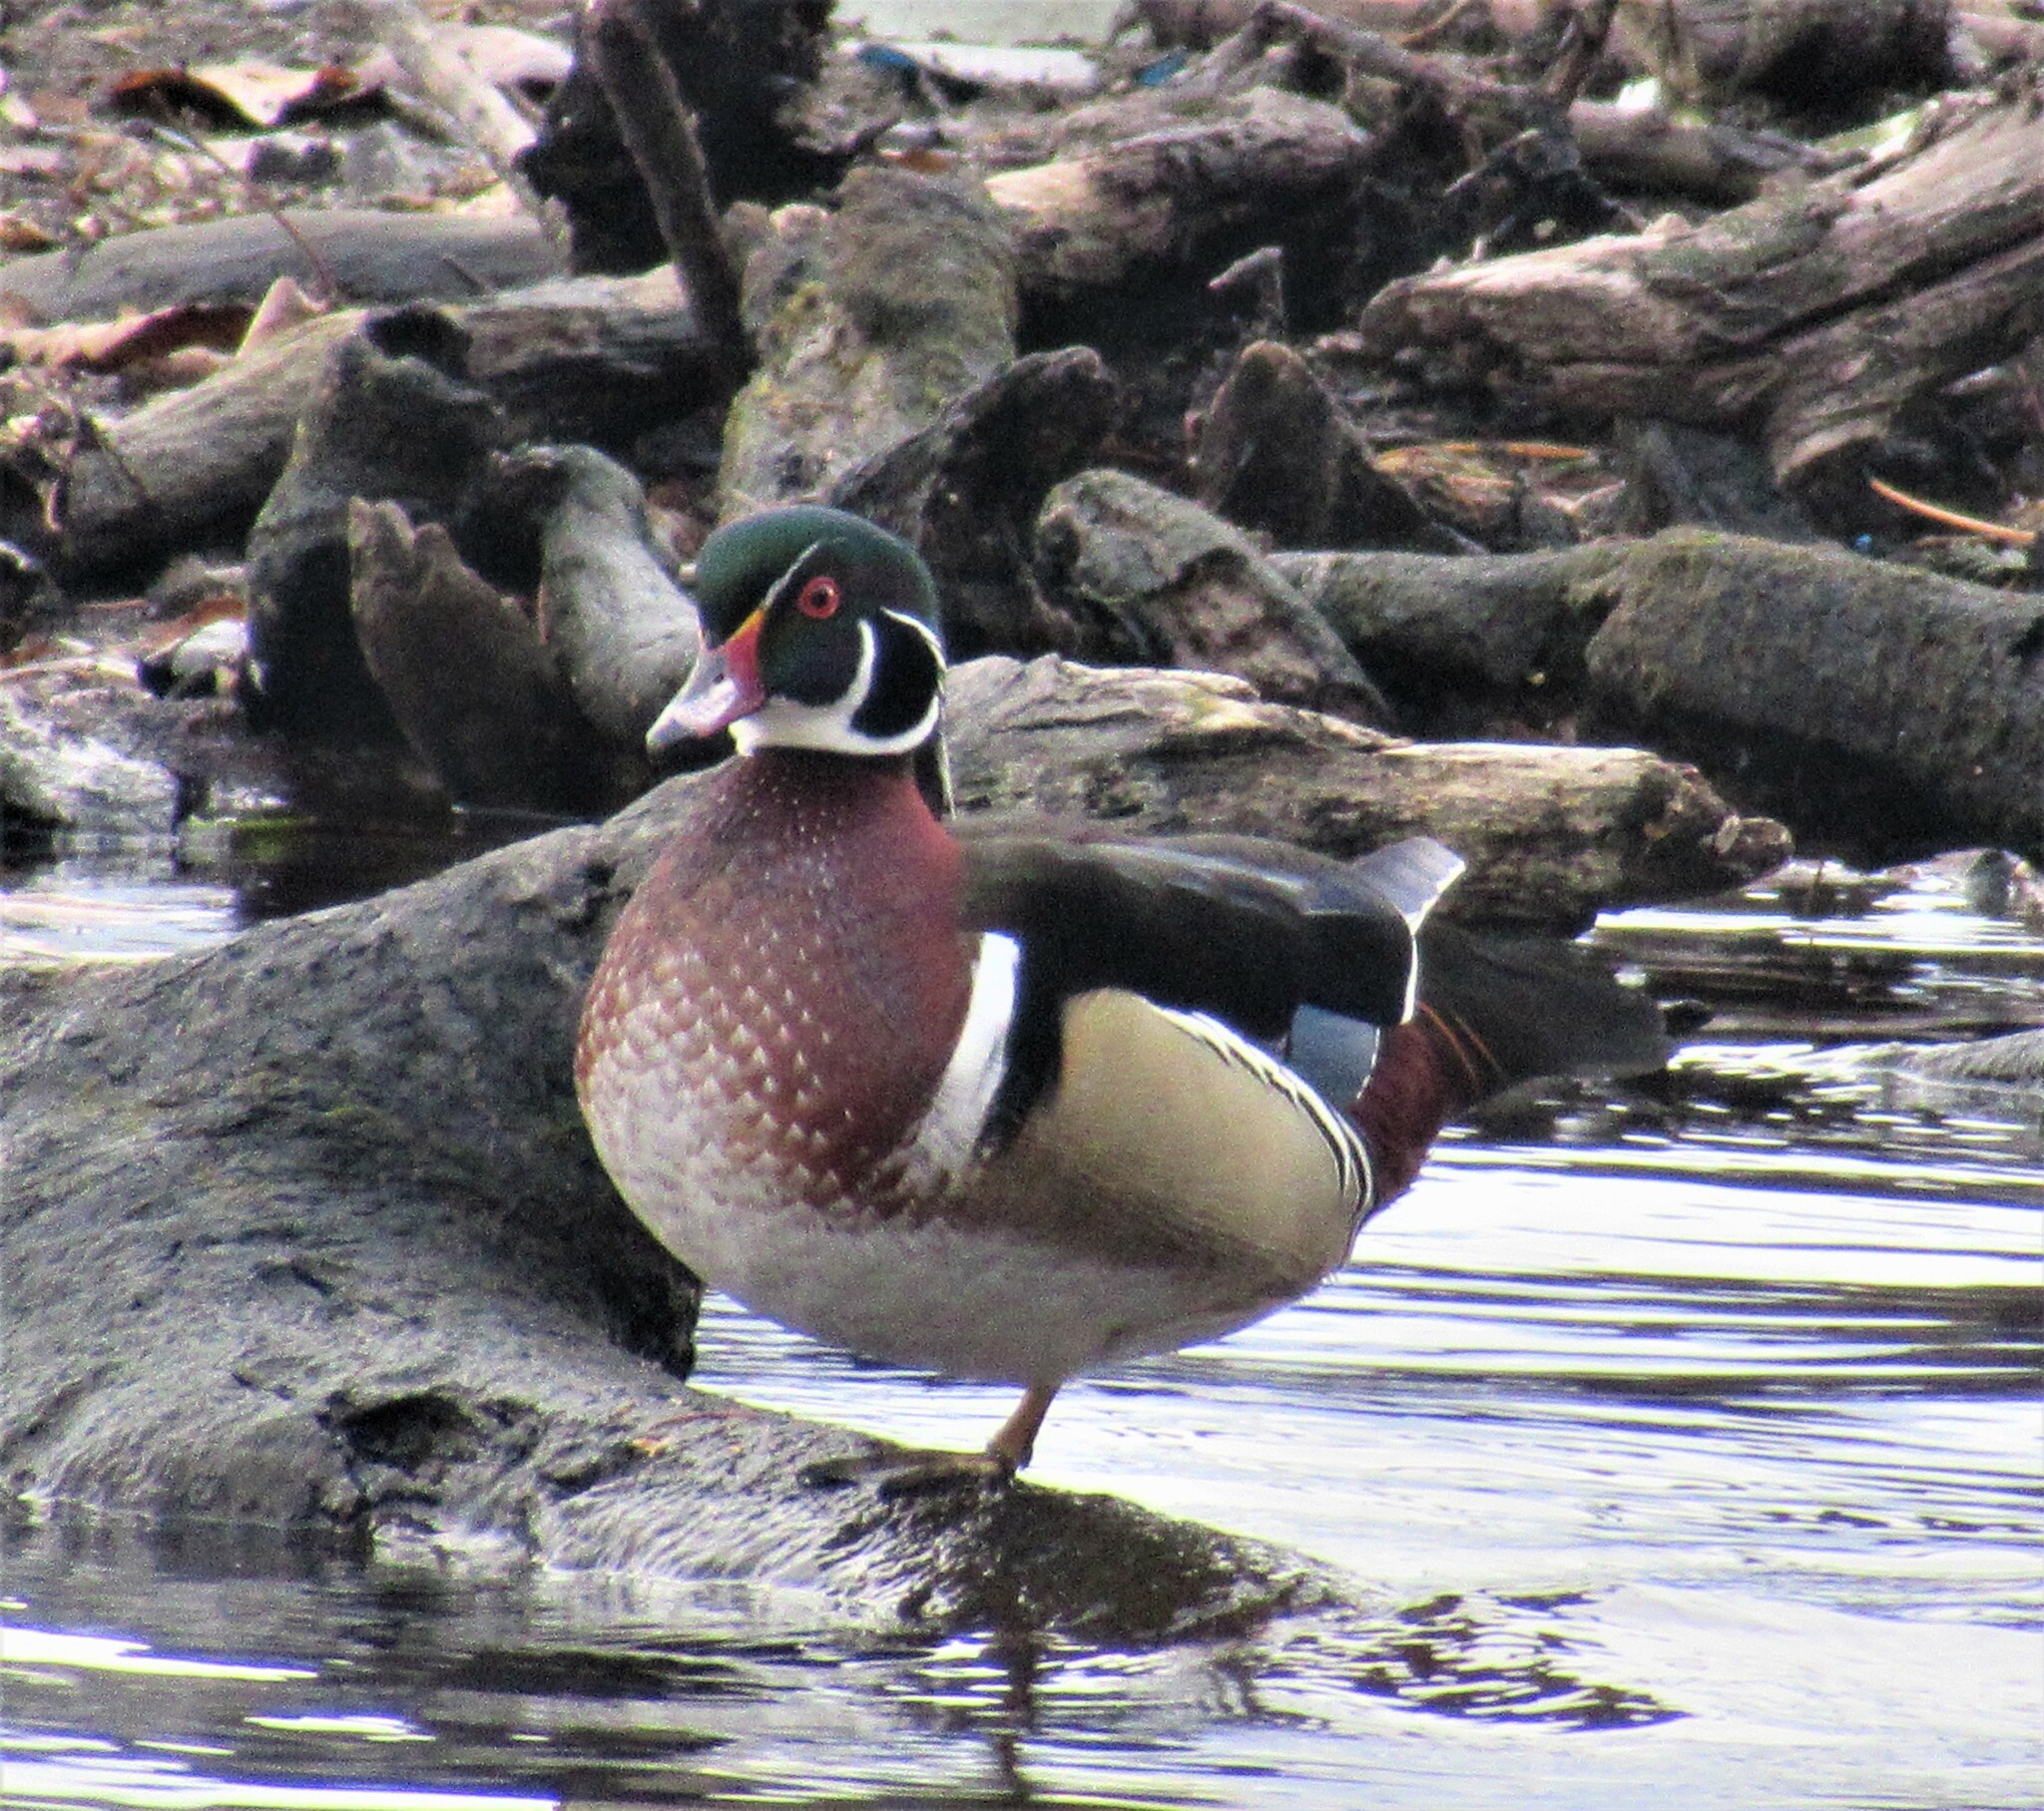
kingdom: Animalia
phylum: Chordata
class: Aves
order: Anseriformes
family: Anatidae
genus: Aix
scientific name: Aix sponsa
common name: Wood duck
